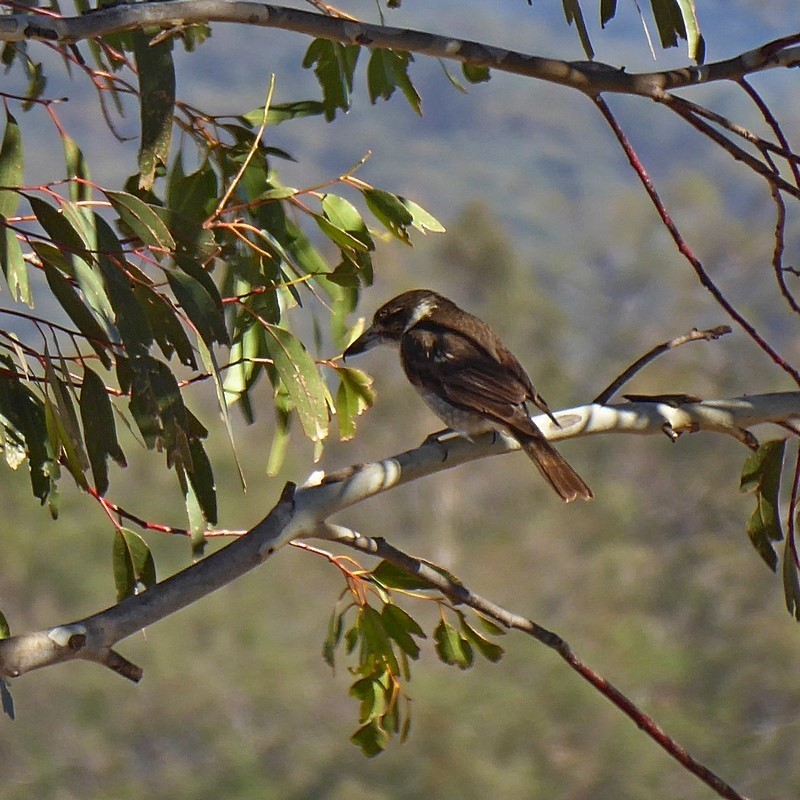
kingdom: Animalia
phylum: Chordata
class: Aves
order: Passeriformes
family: Cracticidae
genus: Cracticus
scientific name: Cracticus torquatus
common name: Grey butcherbird
